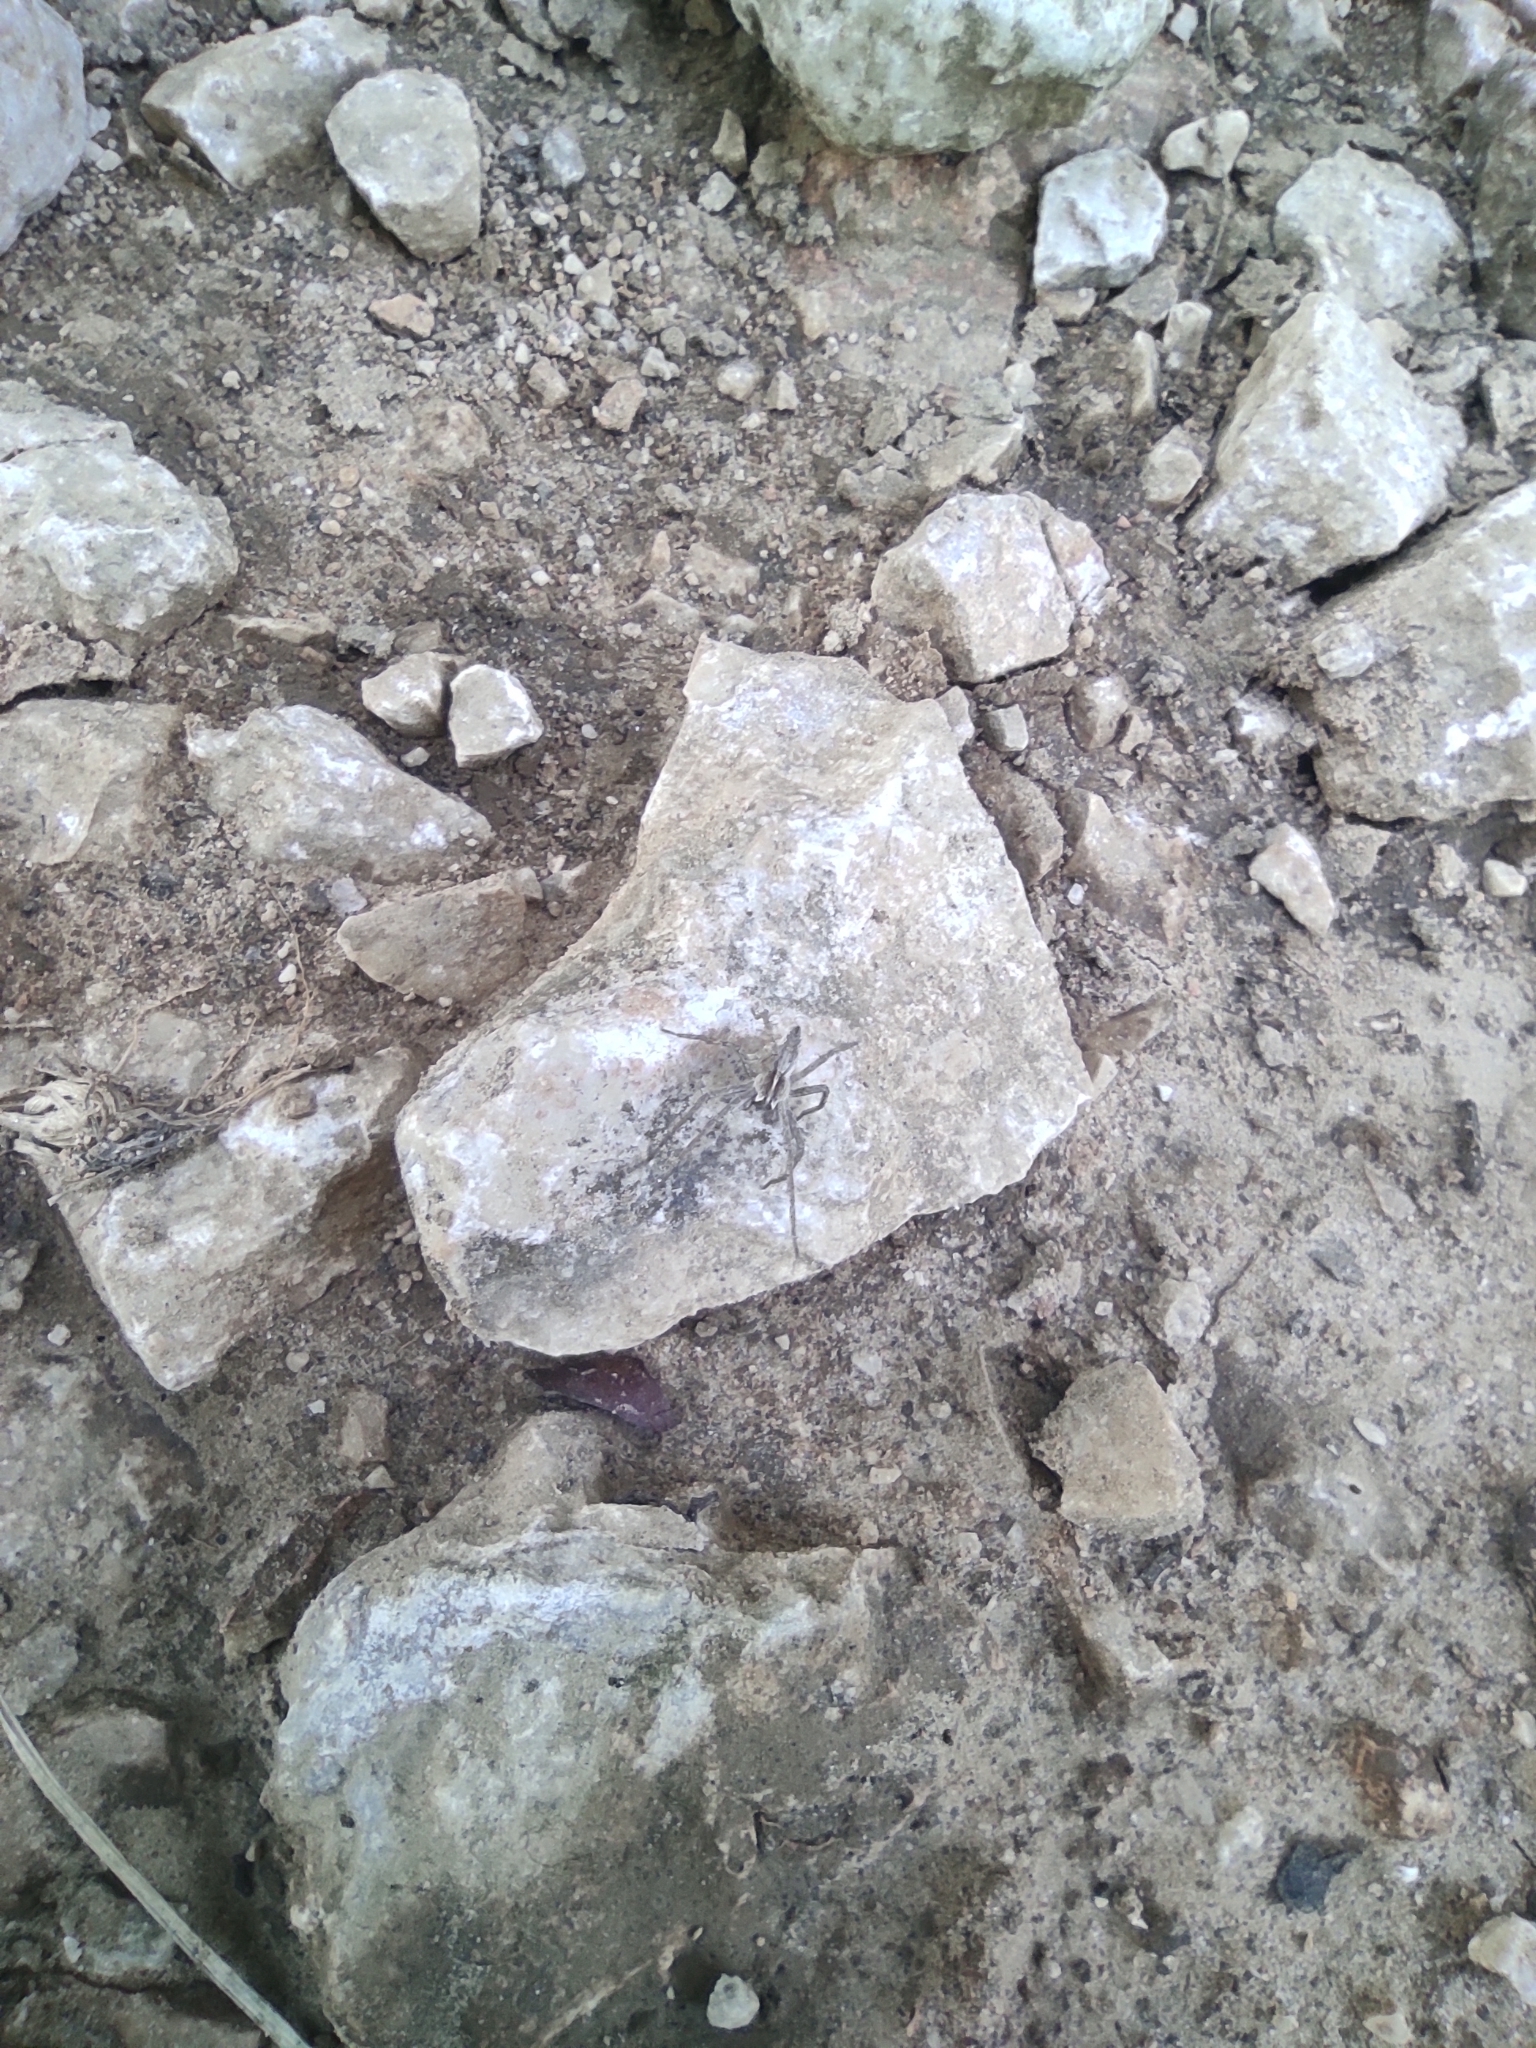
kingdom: Animalia
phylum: Arthropoda
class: Arachnida
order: Araneae
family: Pisauridae
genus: Pisaura
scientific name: Pisaura
